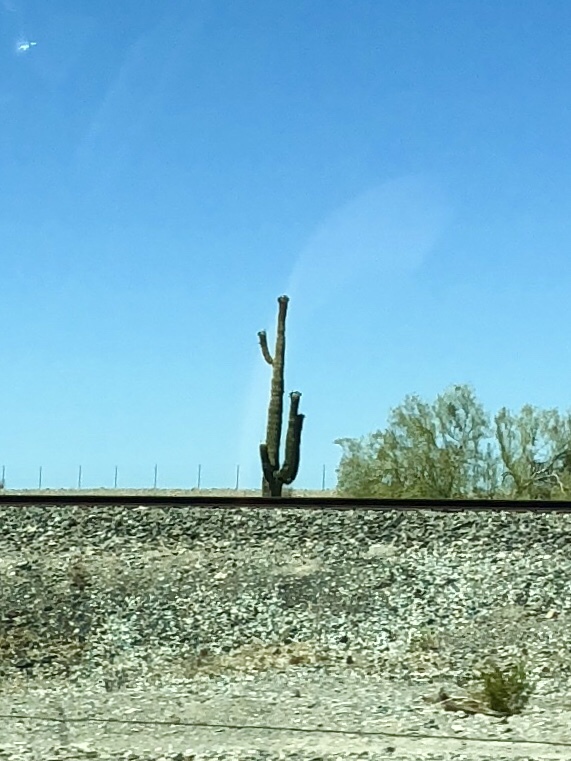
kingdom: Plantae
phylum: Tracheophyta
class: Magnoliopsida
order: Caryophyllales
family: Cactaceae
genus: Carnegiea
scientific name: Carnegiea gigantea
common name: Saguaro
